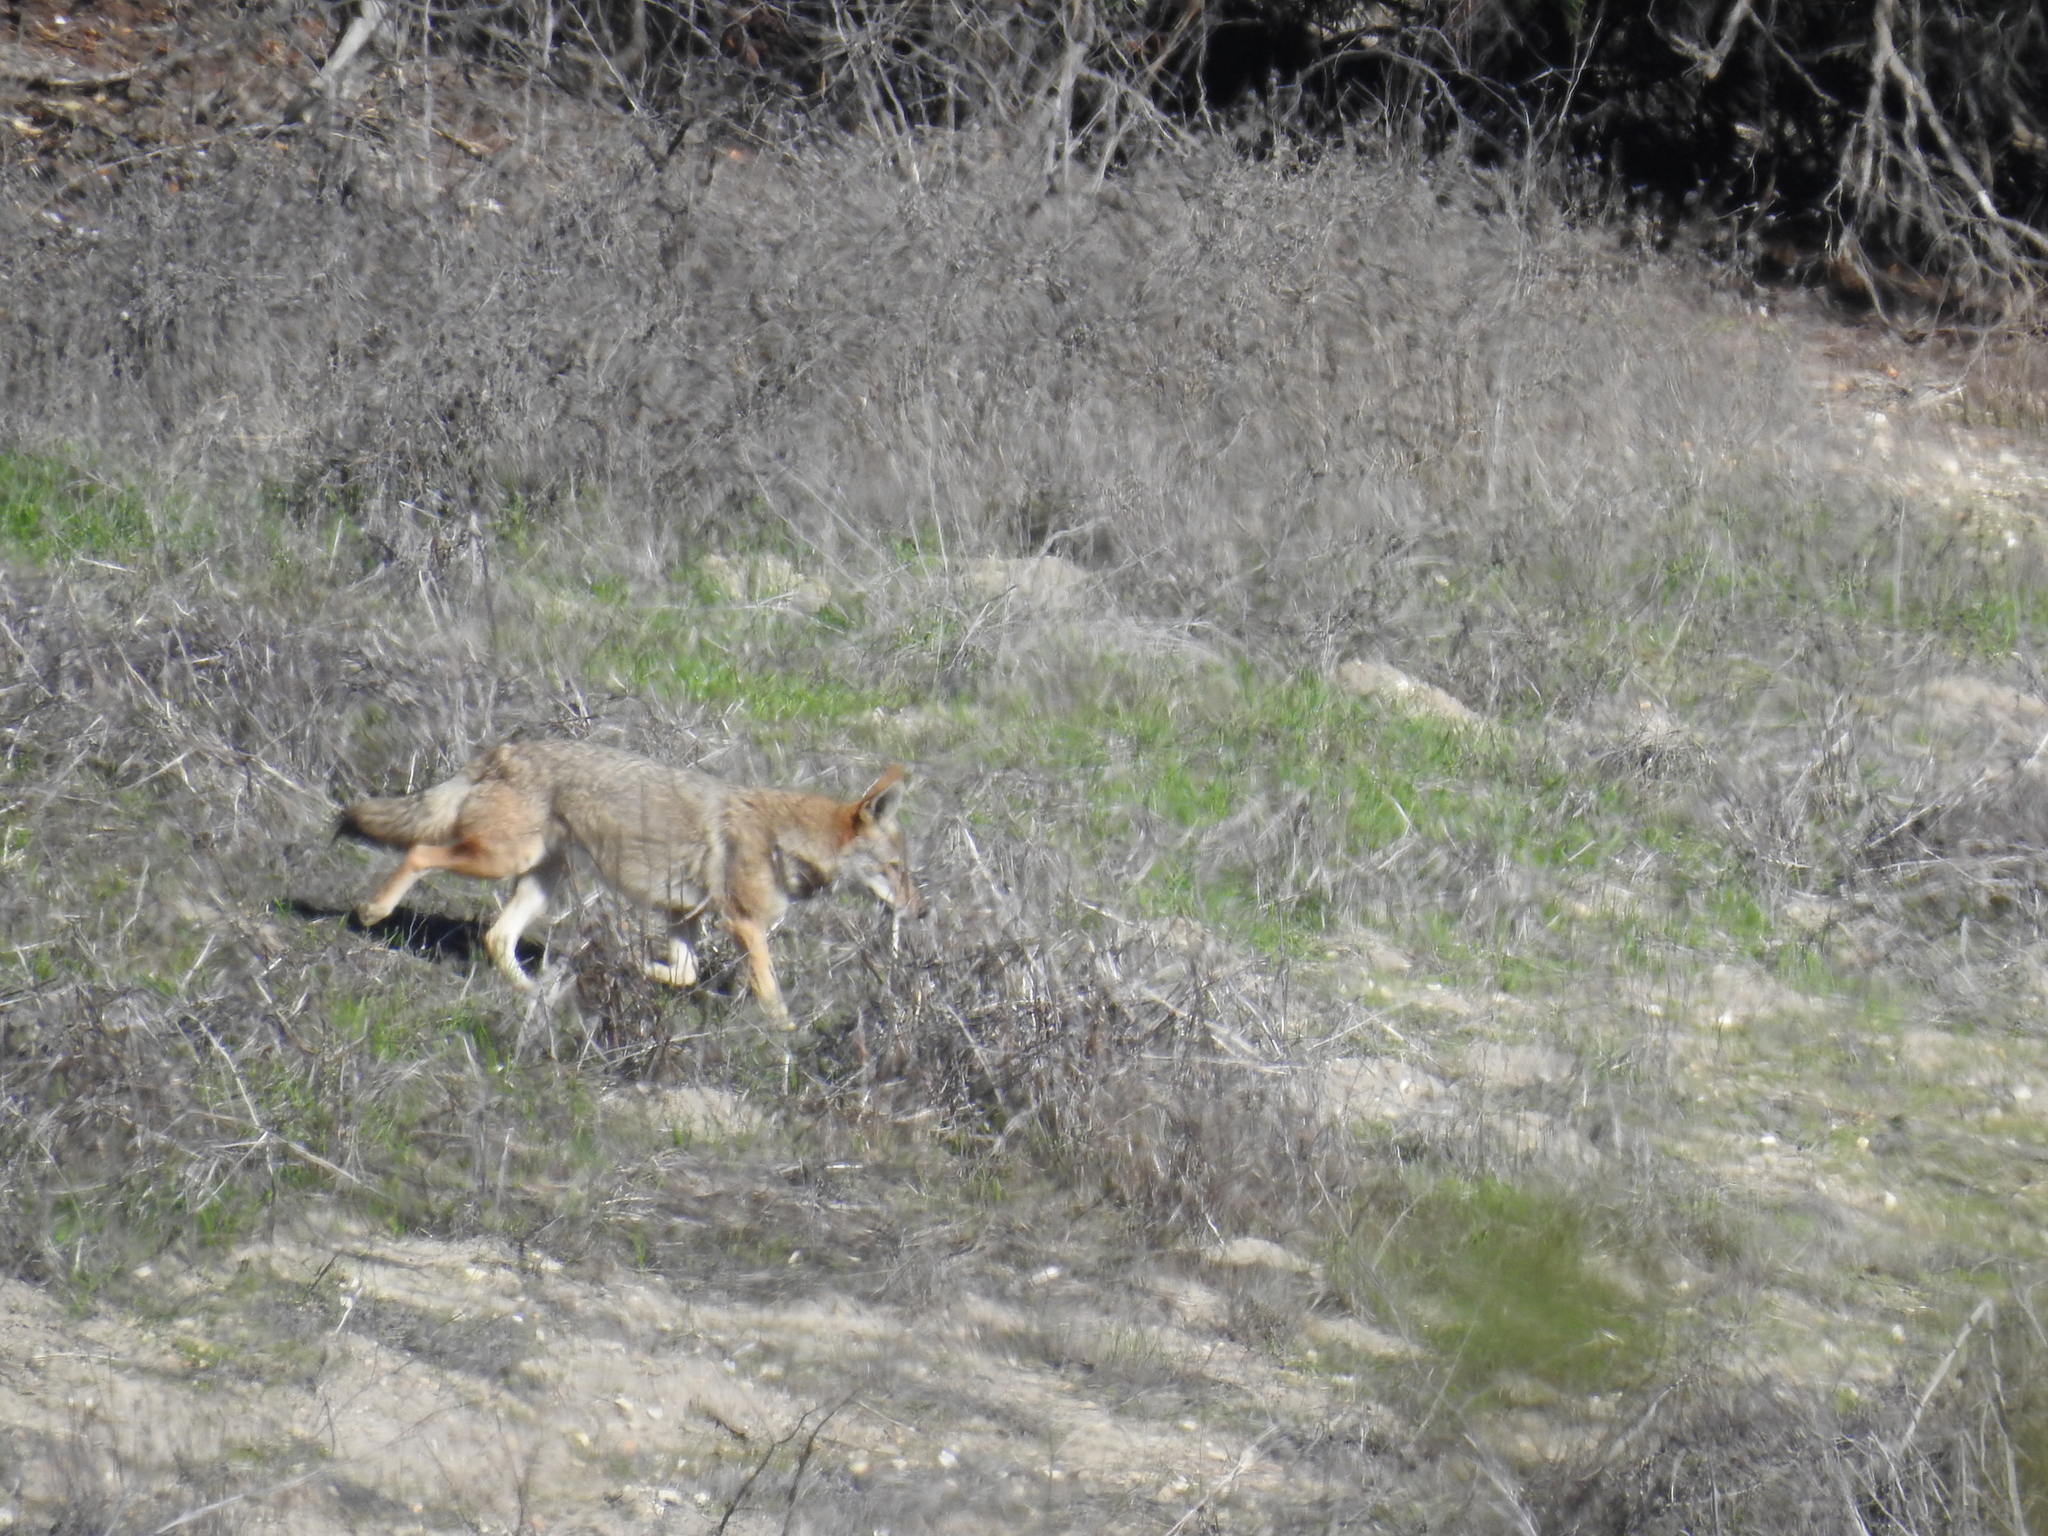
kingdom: Animalia
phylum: Chordata
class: Mammalia
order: Carnivora
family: Canidae
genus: Canis
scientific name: Canis latrans
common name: Coyote
